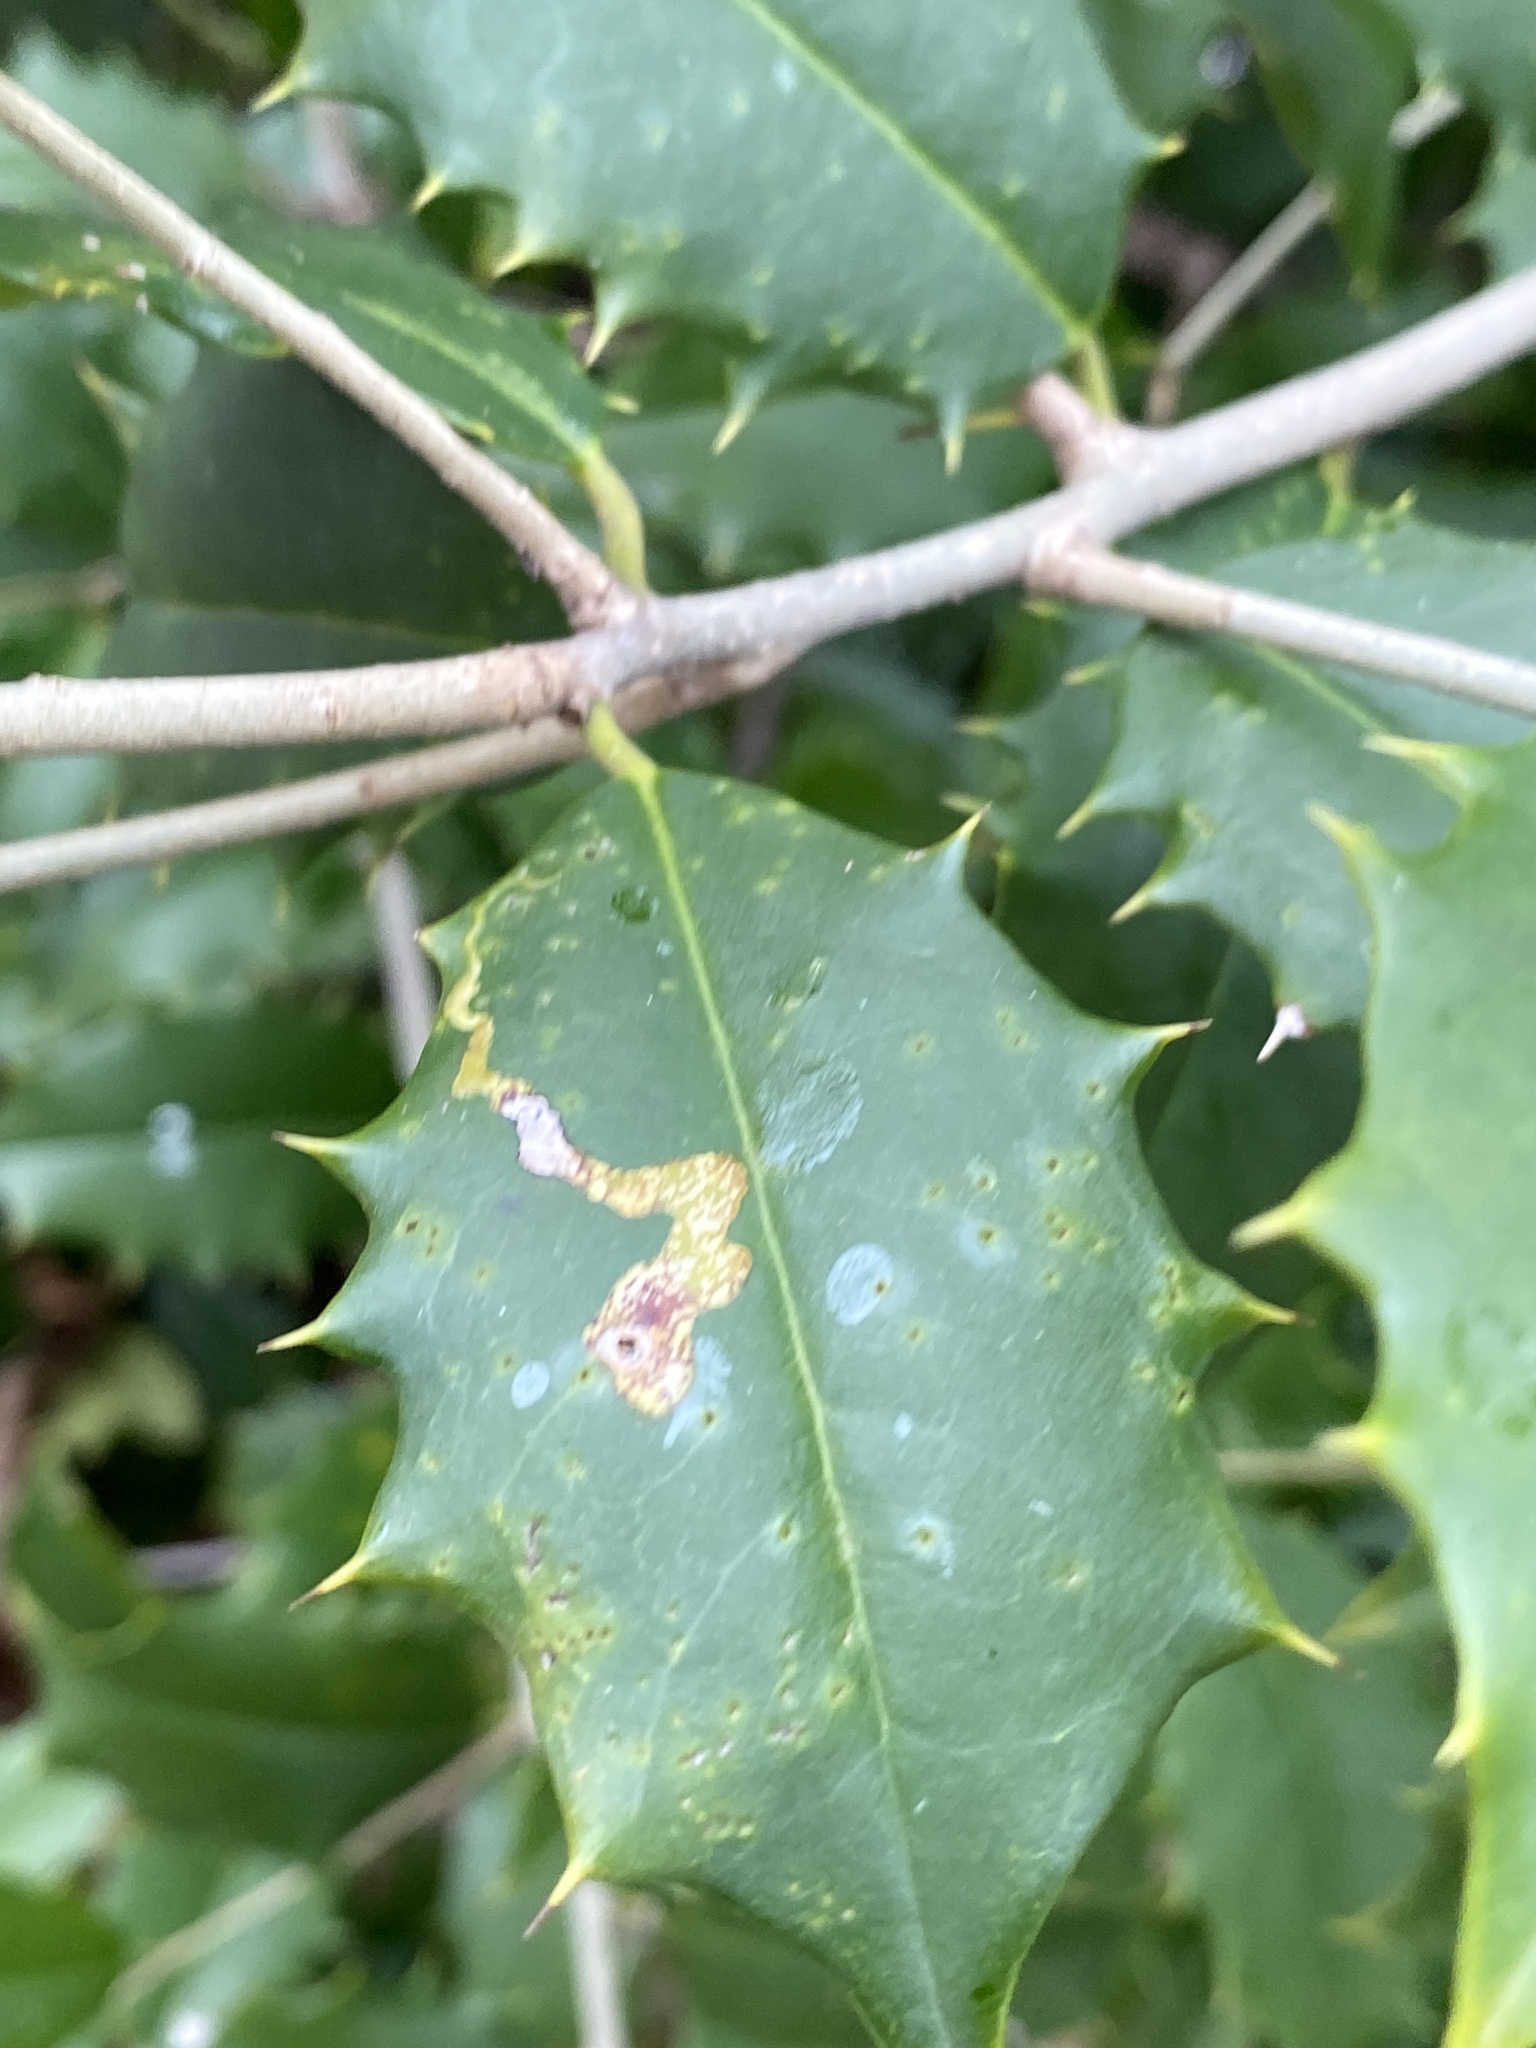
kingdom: Animalia
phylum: Arthropoda
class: Insecta
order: Diptera
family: Agromyzidae
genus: Phytomyza
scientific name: Phytomyza ilicicola
